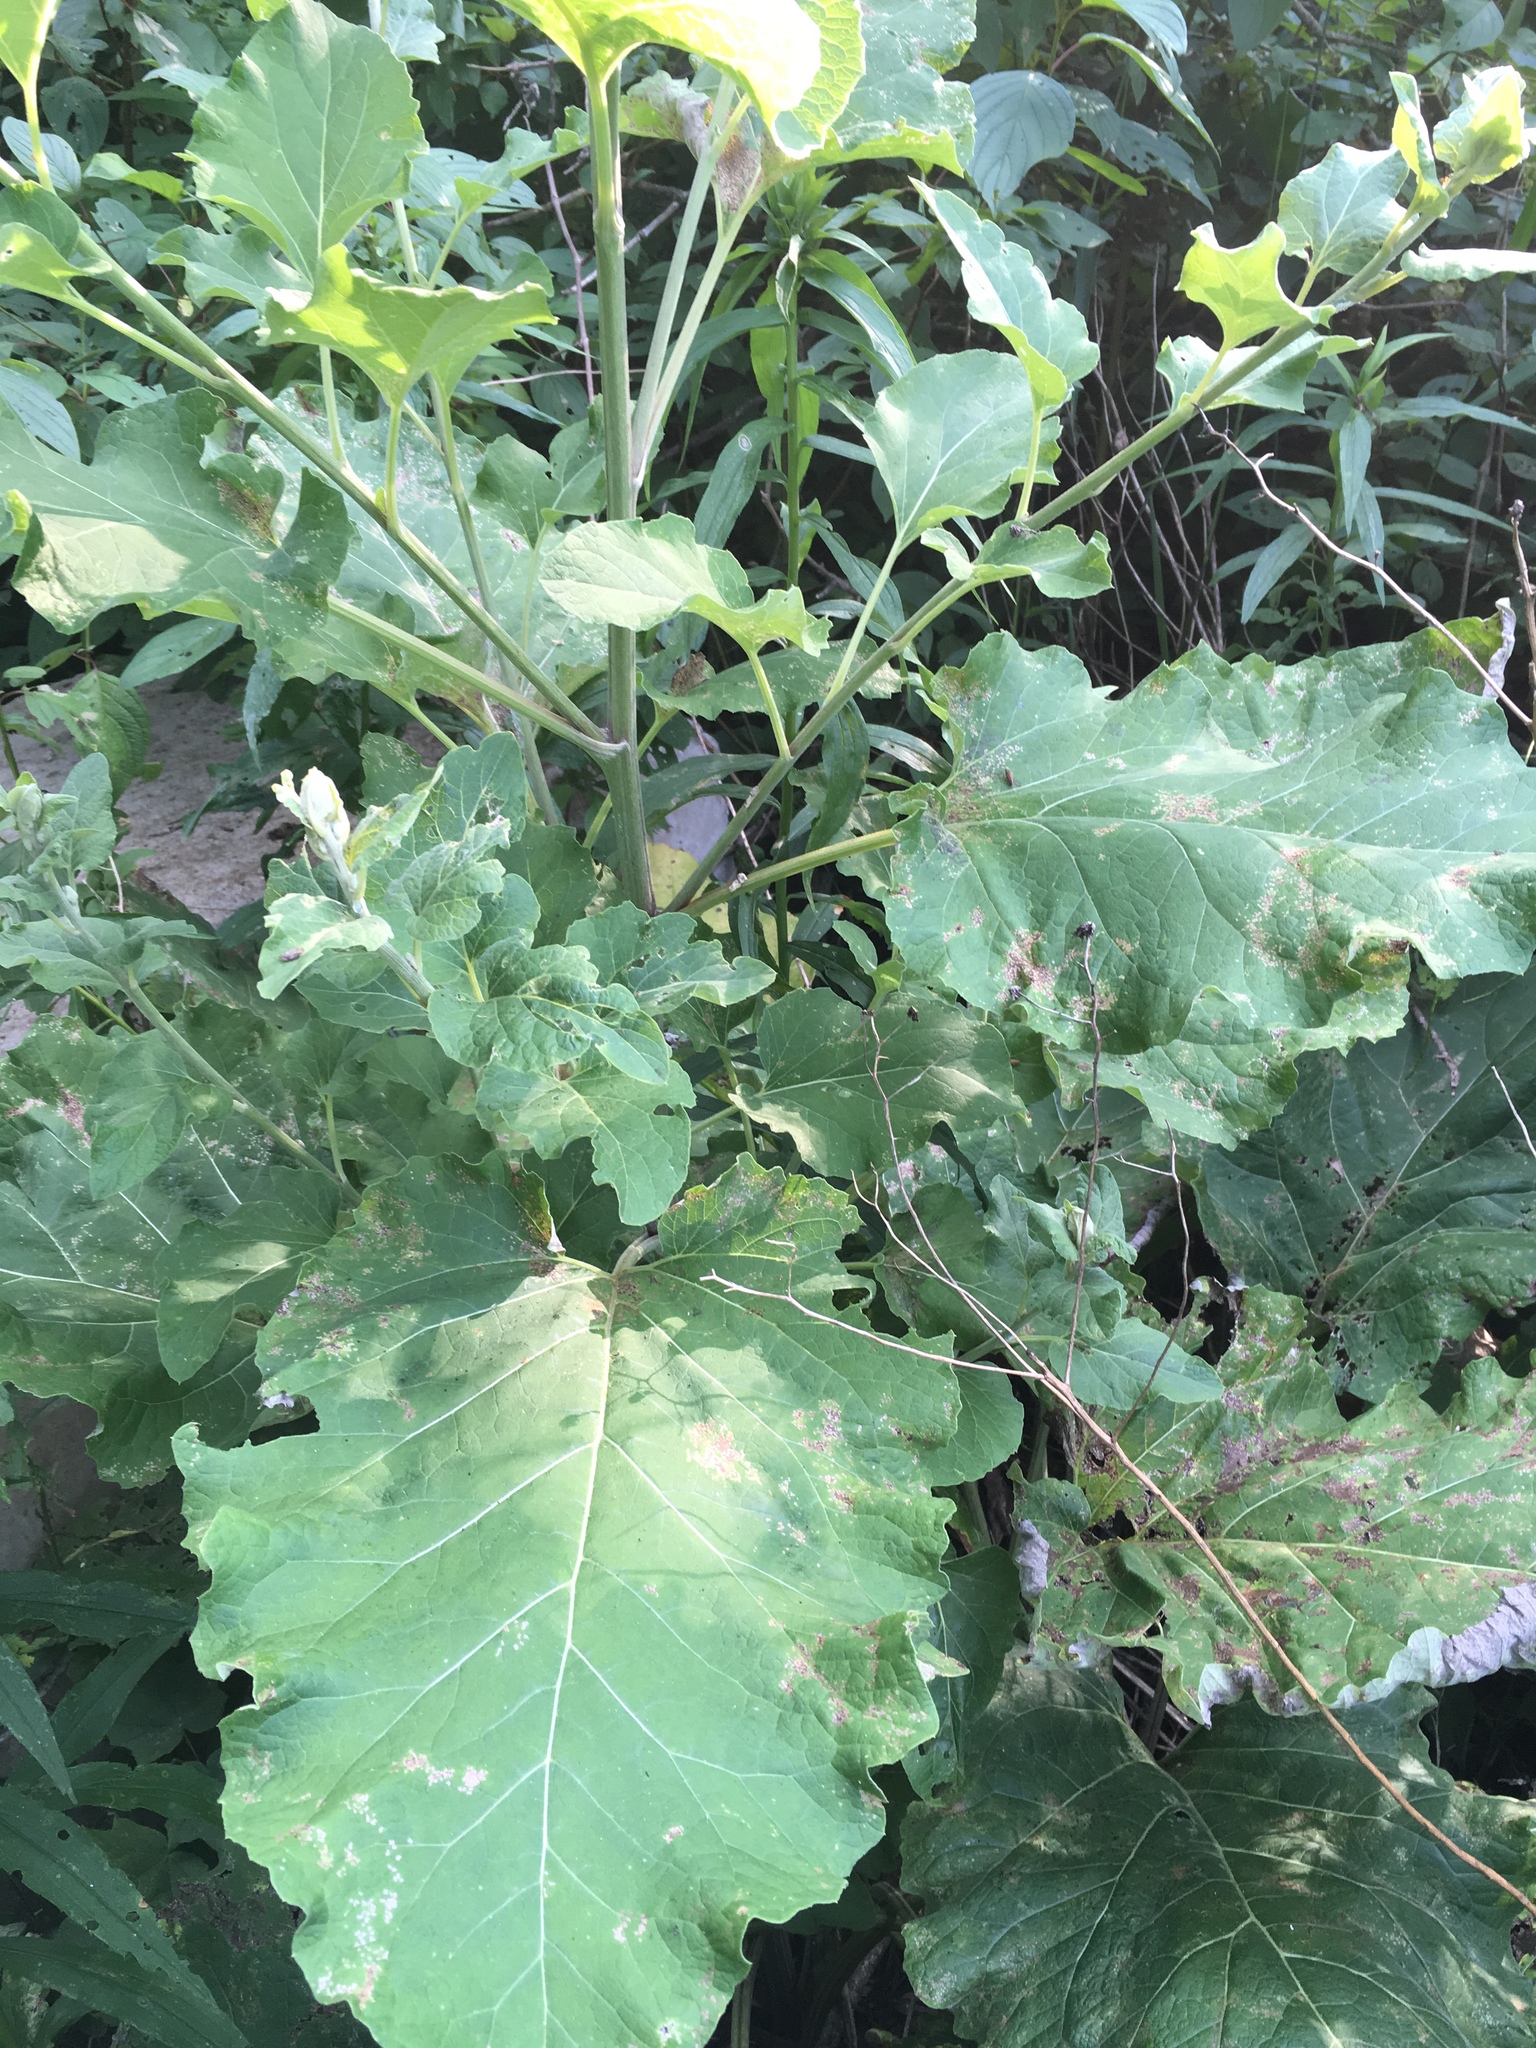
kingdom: Plantae
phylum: Tracheophyta
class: Magnoliopsida
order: Asterales
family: Asteraceae
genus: Arctium
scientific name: Arctium lappa
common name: Greater burdock
